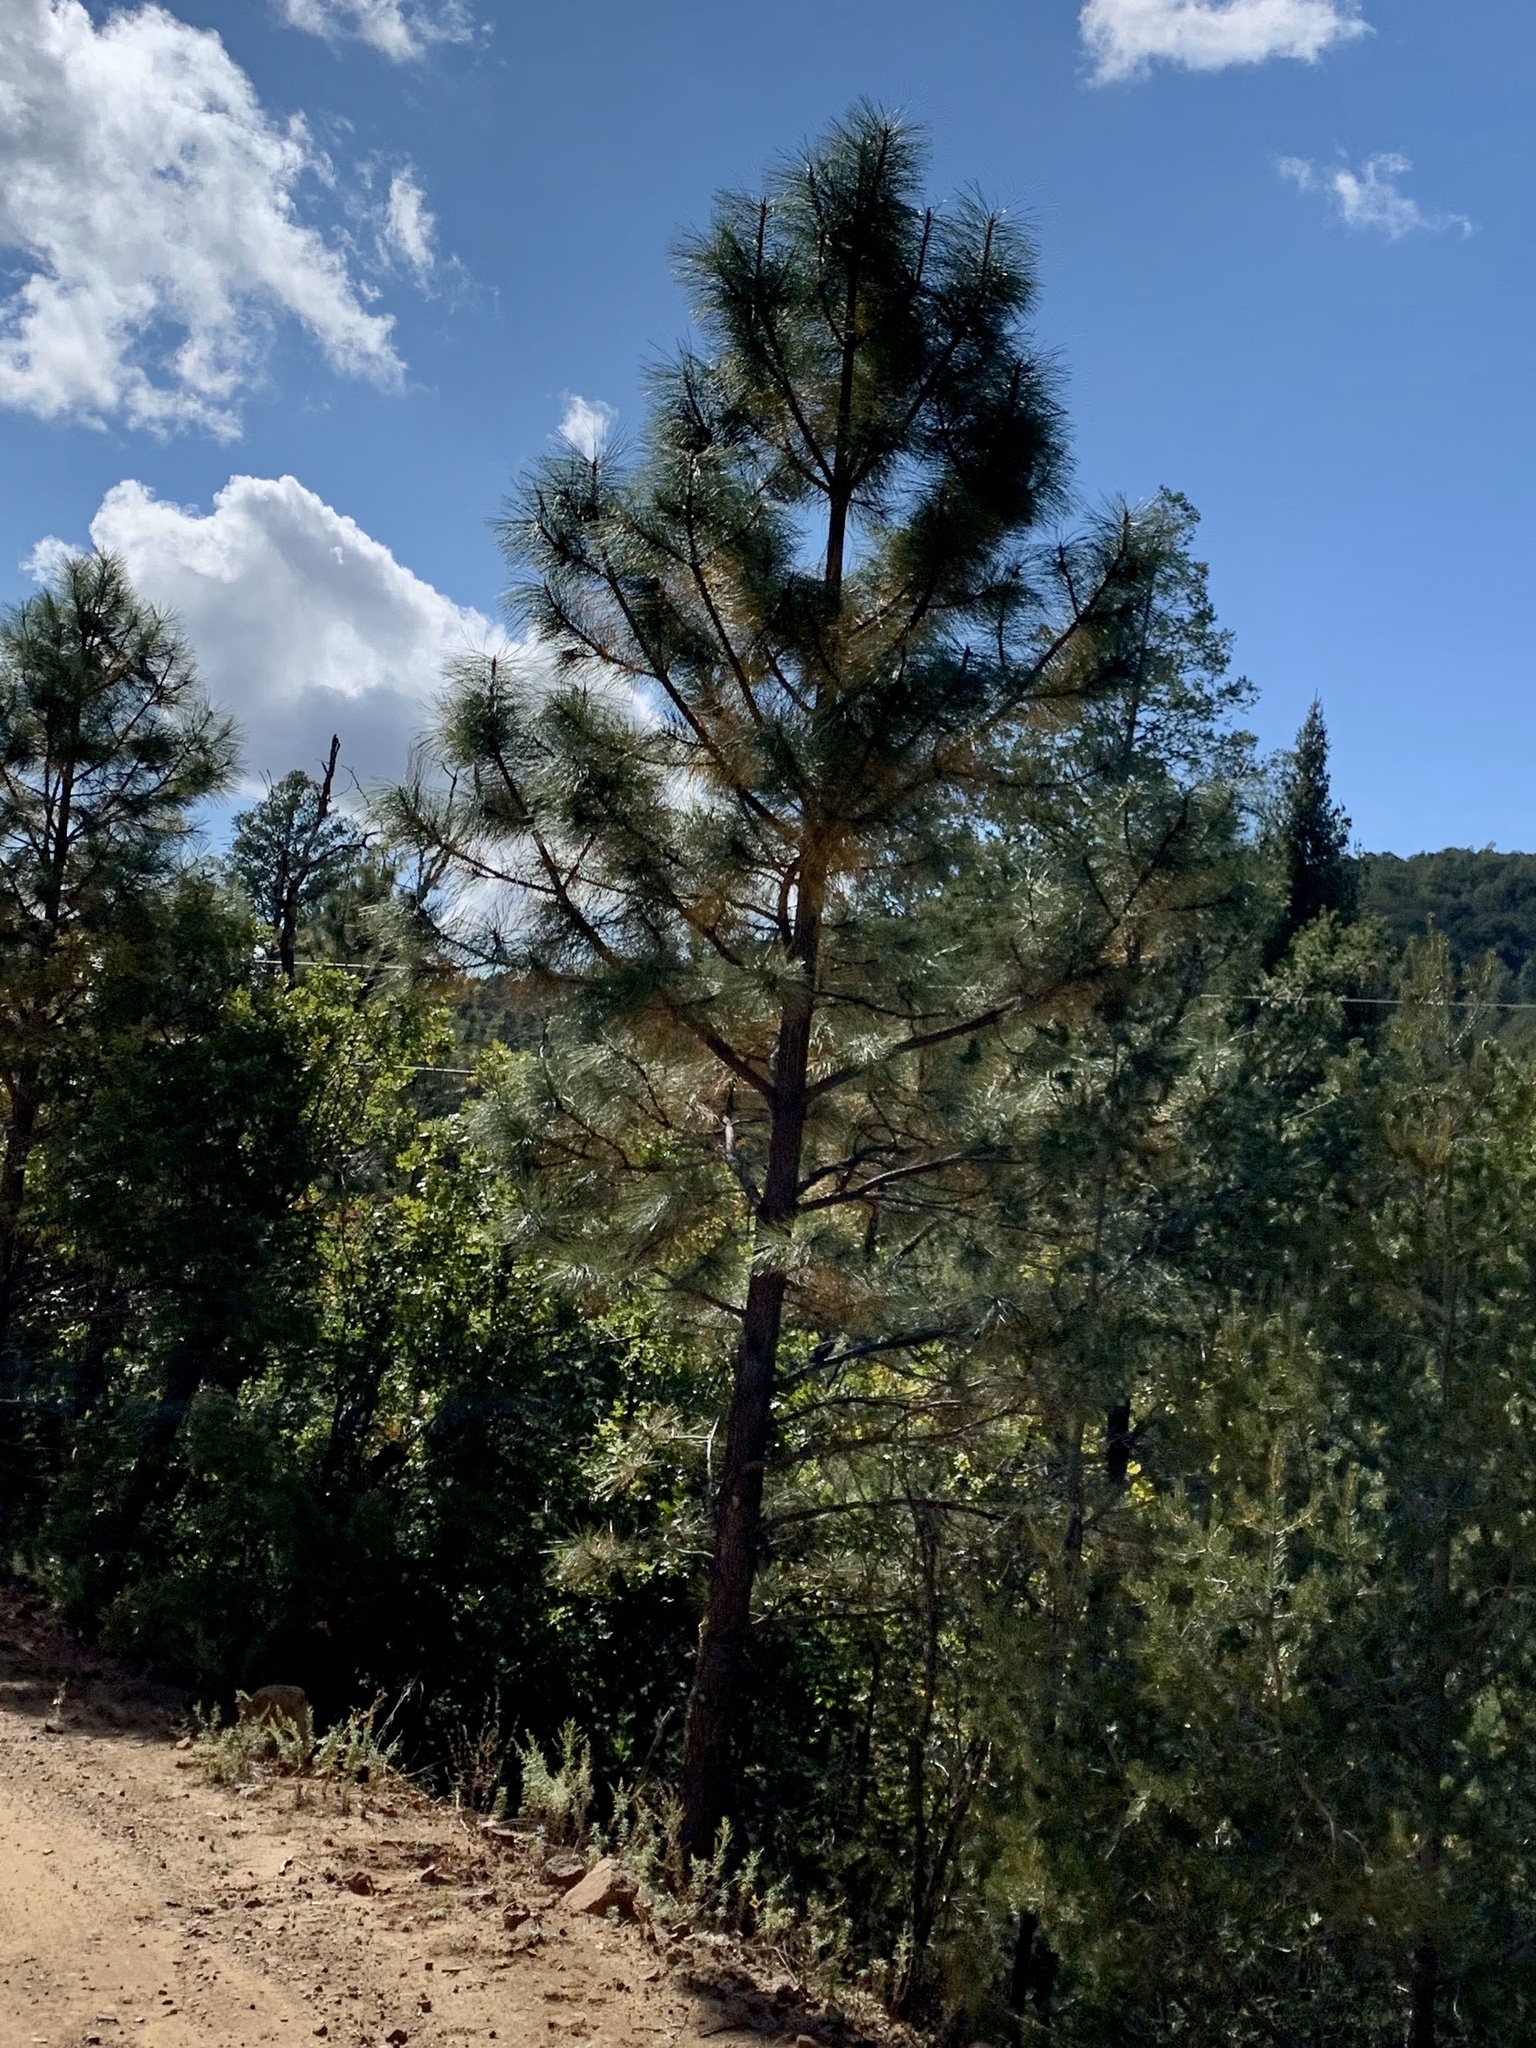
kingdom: Plantae
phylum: Tracheophyta
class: Pinopsida
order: Pinales
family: Pinaceae
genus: Pinus
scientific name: Pinus ponderosa
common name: Western yellow-pine
